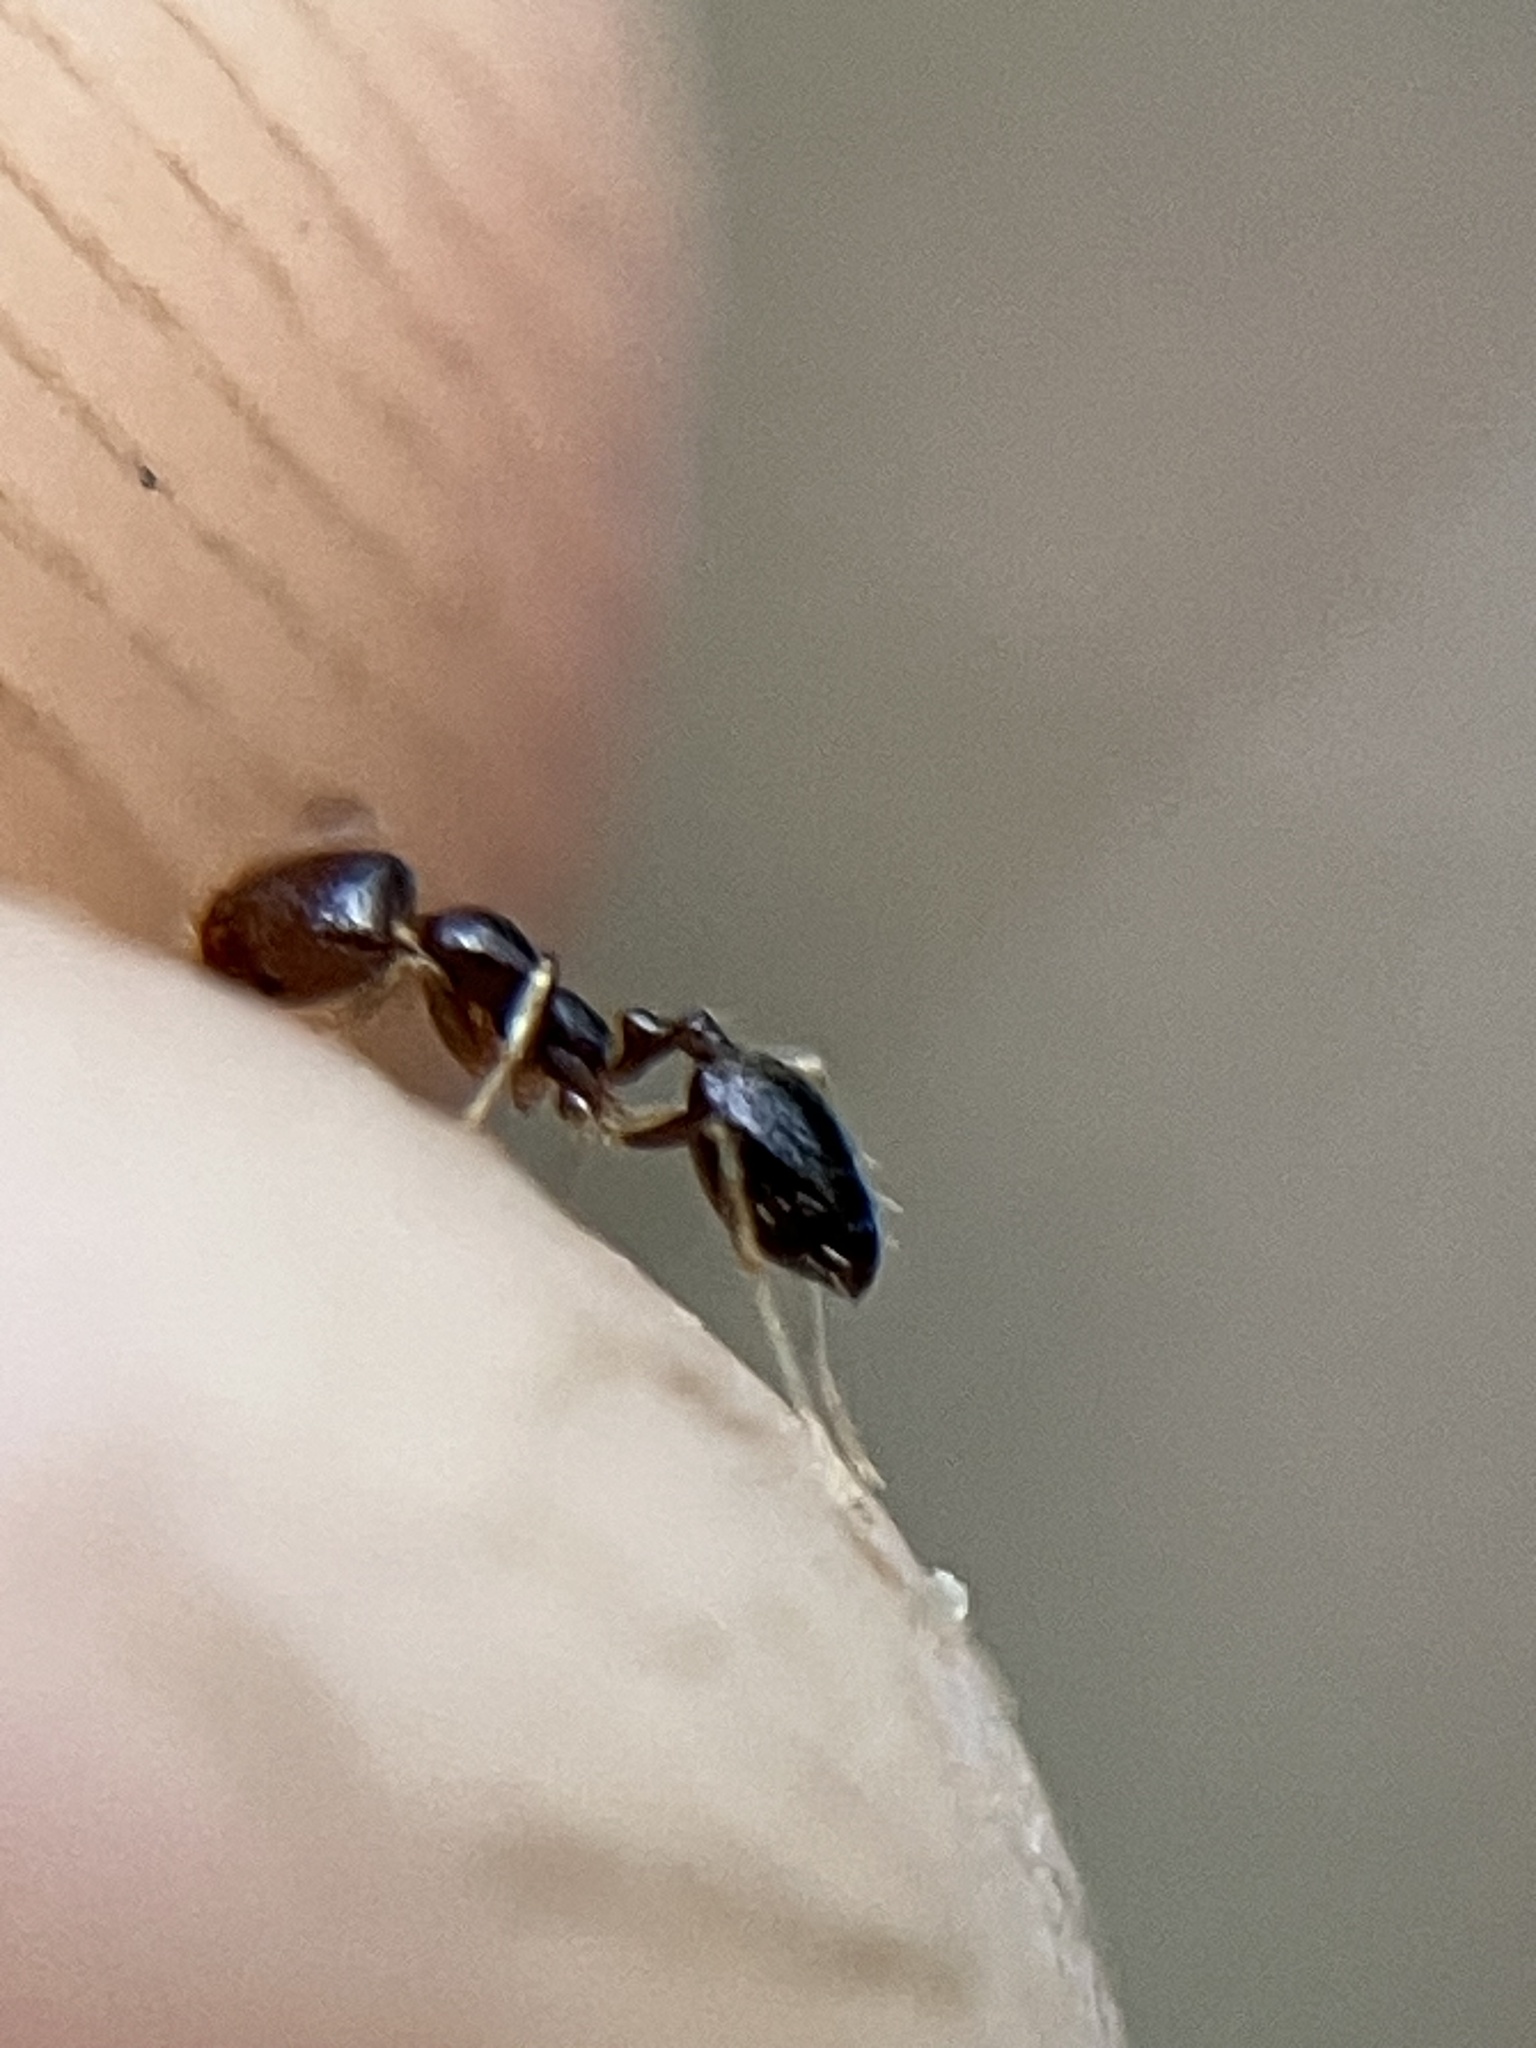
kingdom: Animalia
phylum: Arthropoda
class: Insecta
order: Hymenoptera
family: Formicidae
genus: Trichomyrmex
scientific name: Trichomyrmex mayri
